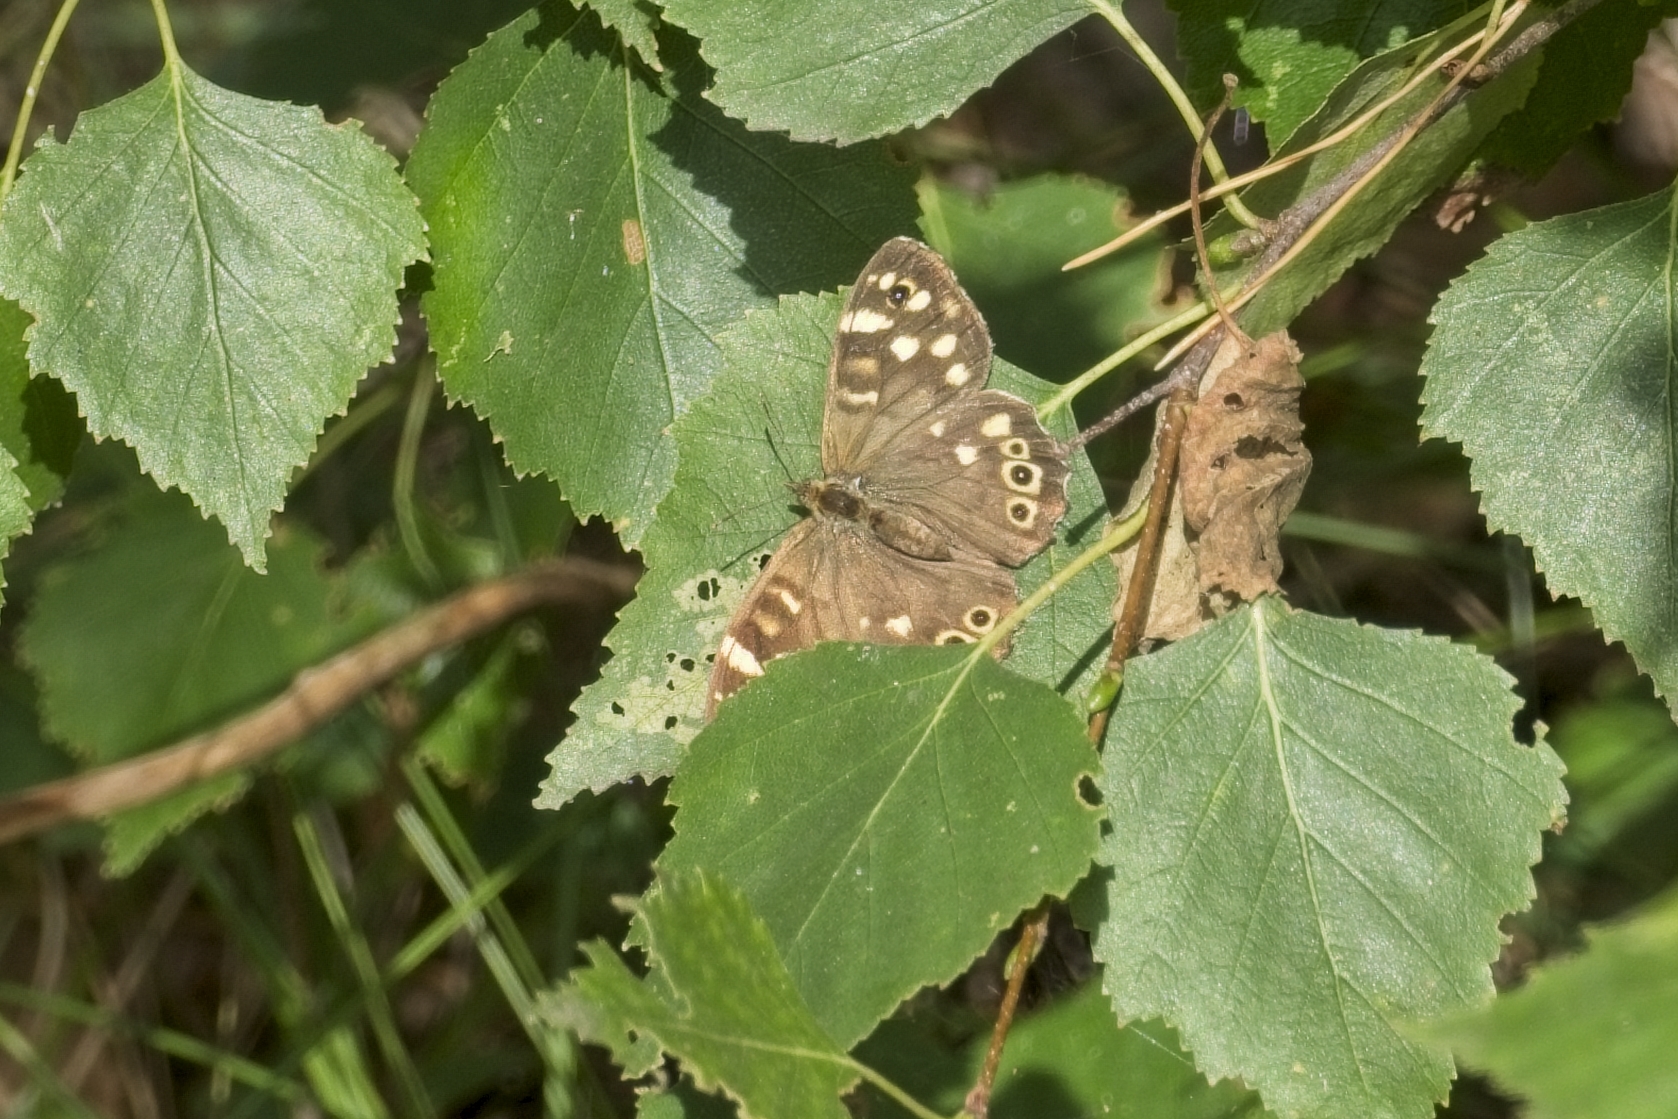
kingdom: Animalia
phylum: Arthropoda
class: Insecta
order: Lepidoptera
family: Nymphalidae
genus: Pararge
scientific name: Pararge aegeria
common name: Speckled wood
